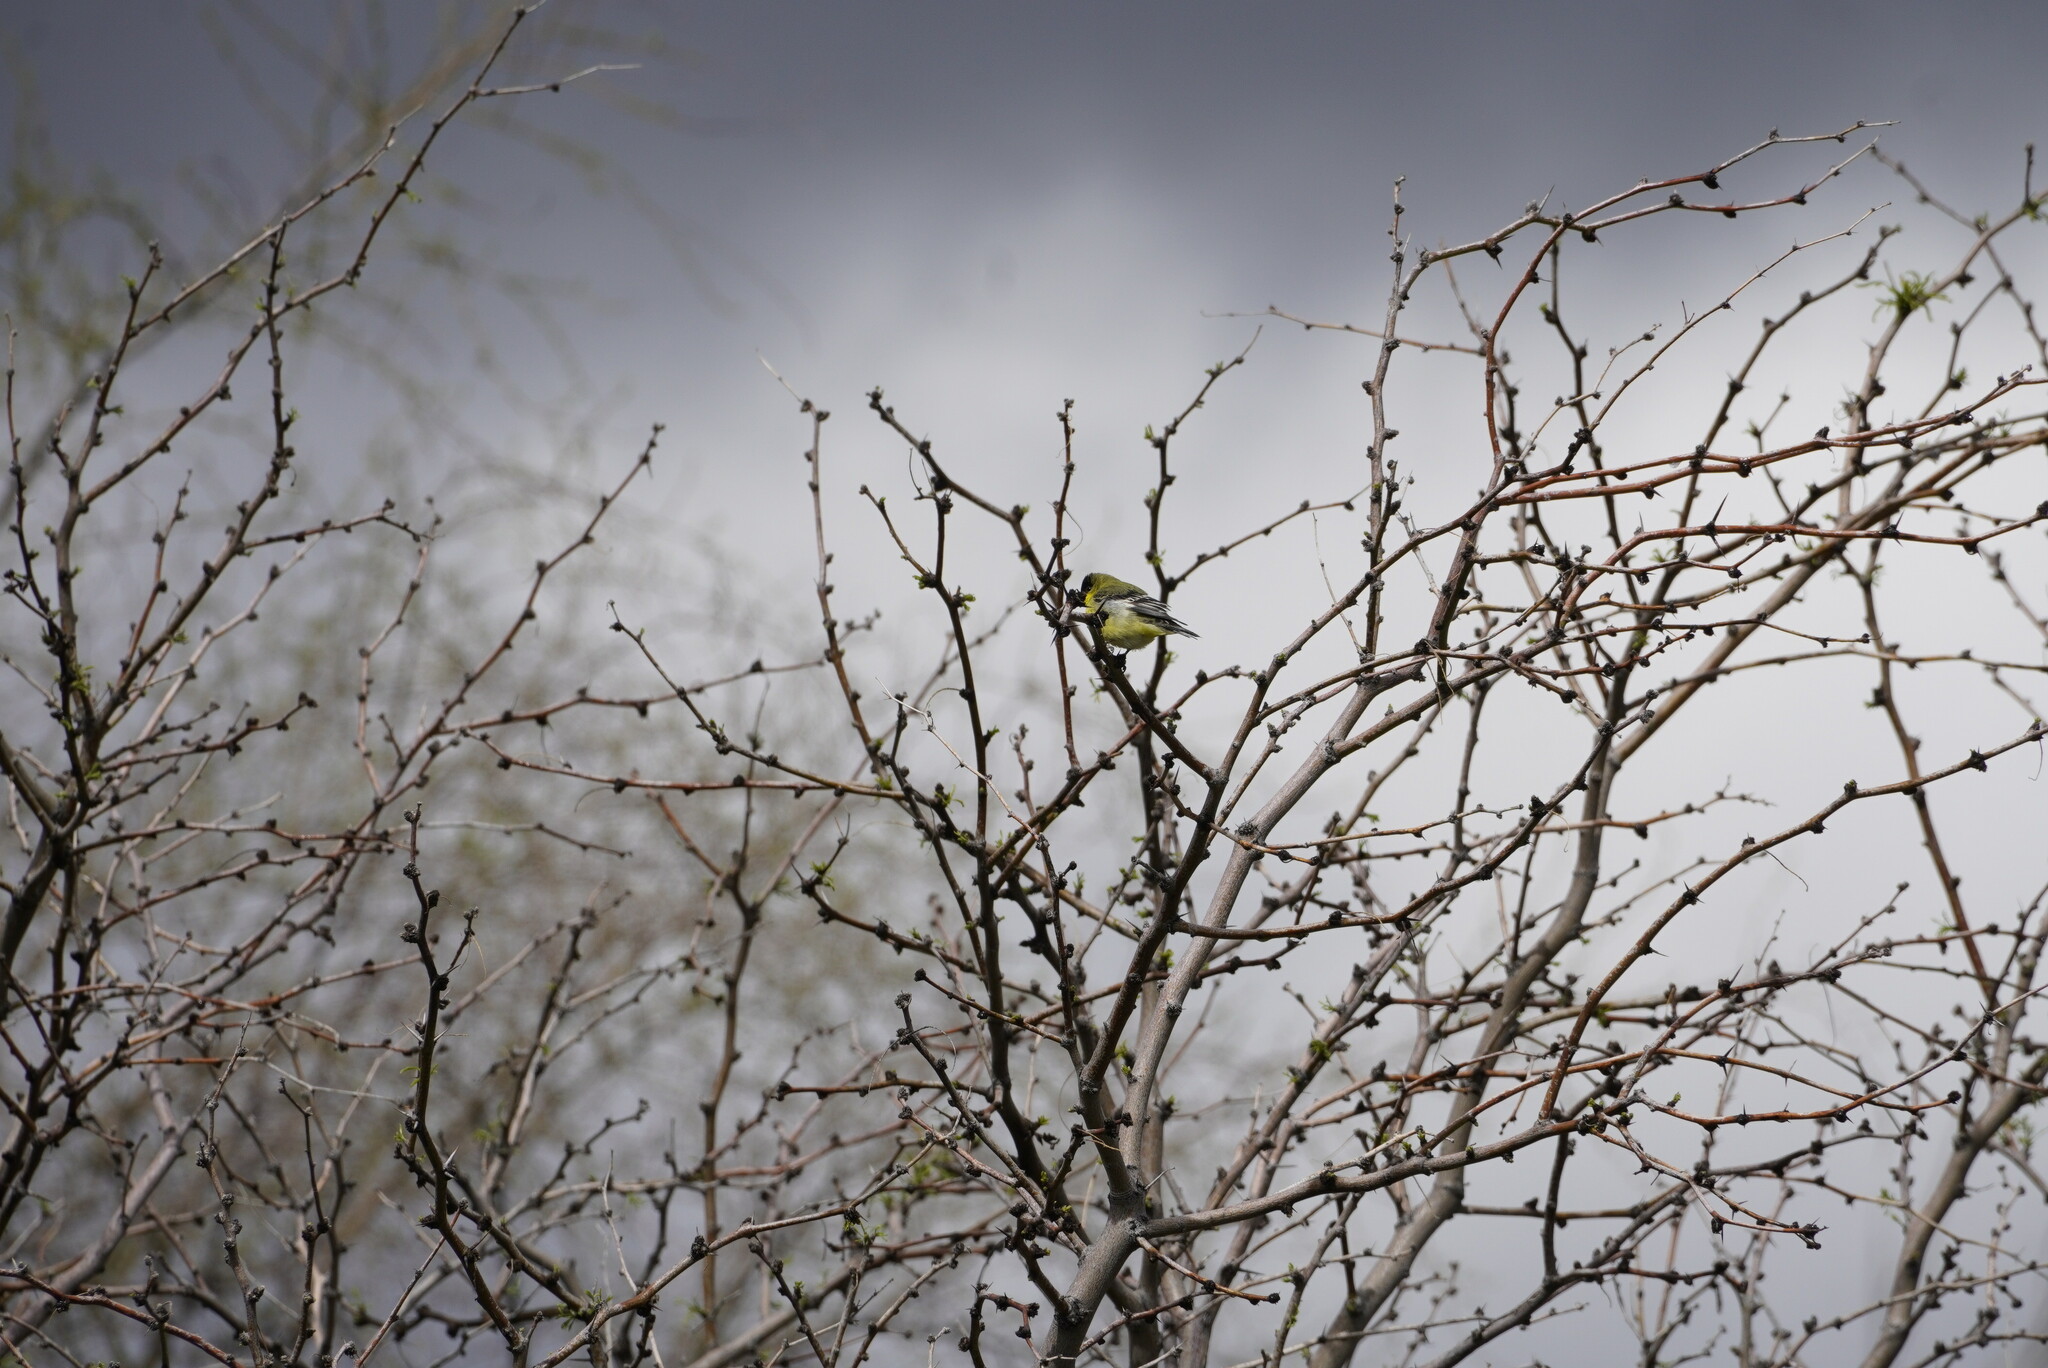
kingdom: Animalia
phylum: Chordata
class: Aves
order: Passeriformes
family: Fringillidae
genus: Spinus
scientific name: Spinus psaltria
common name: Lesser goldfinch
